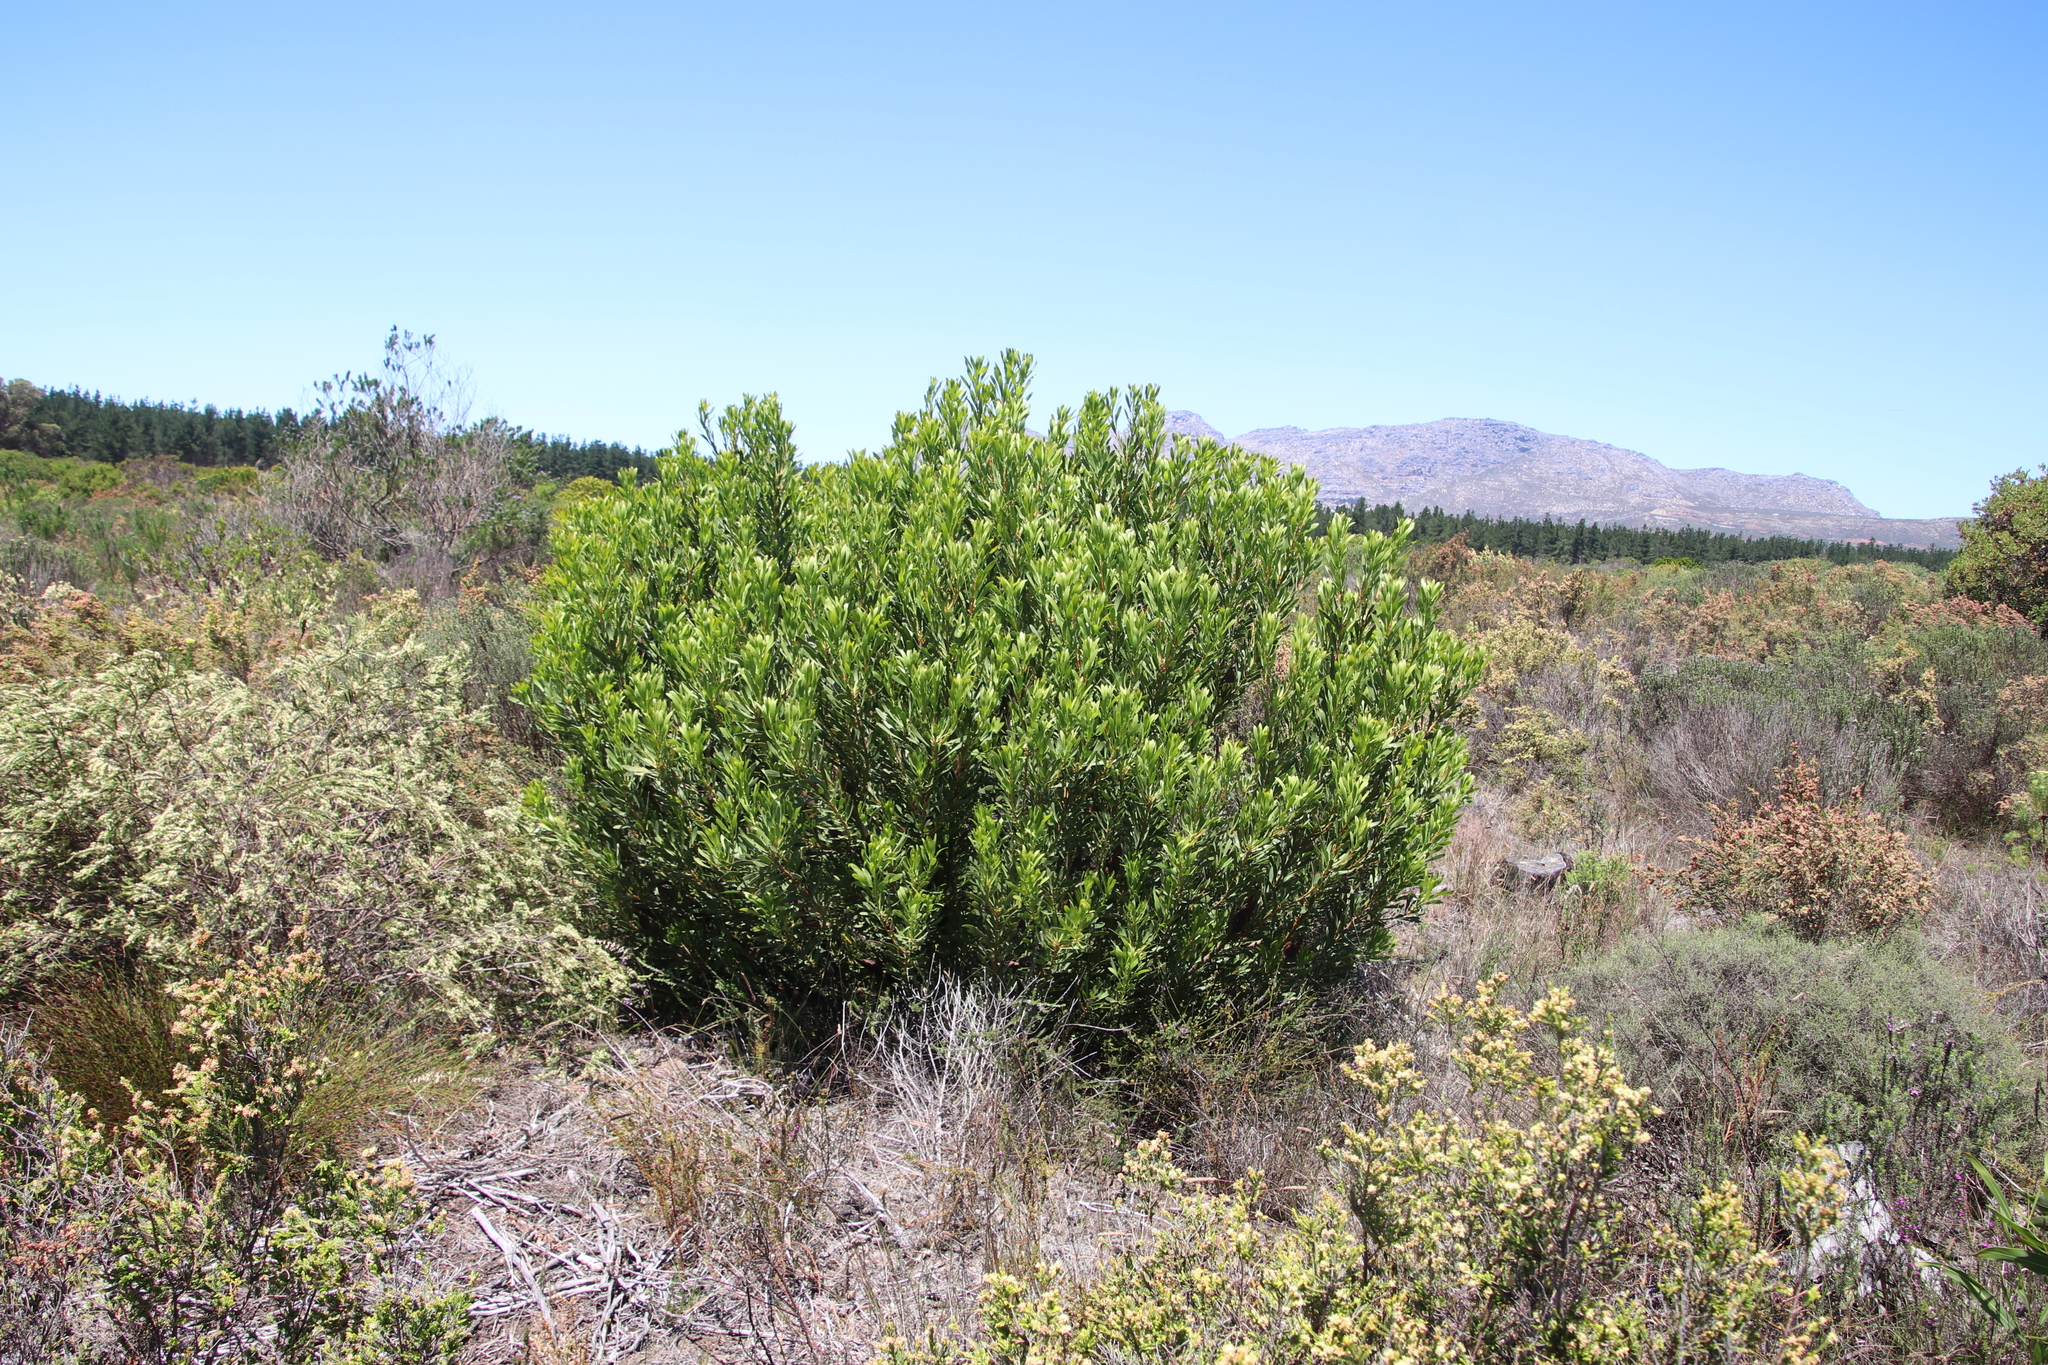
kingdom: Plantae
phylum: Tracheophyta
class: Magnoliopsida
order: Proteales
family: Proteaceae
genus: Protea
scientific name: Protea repens
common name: Sugarbush
